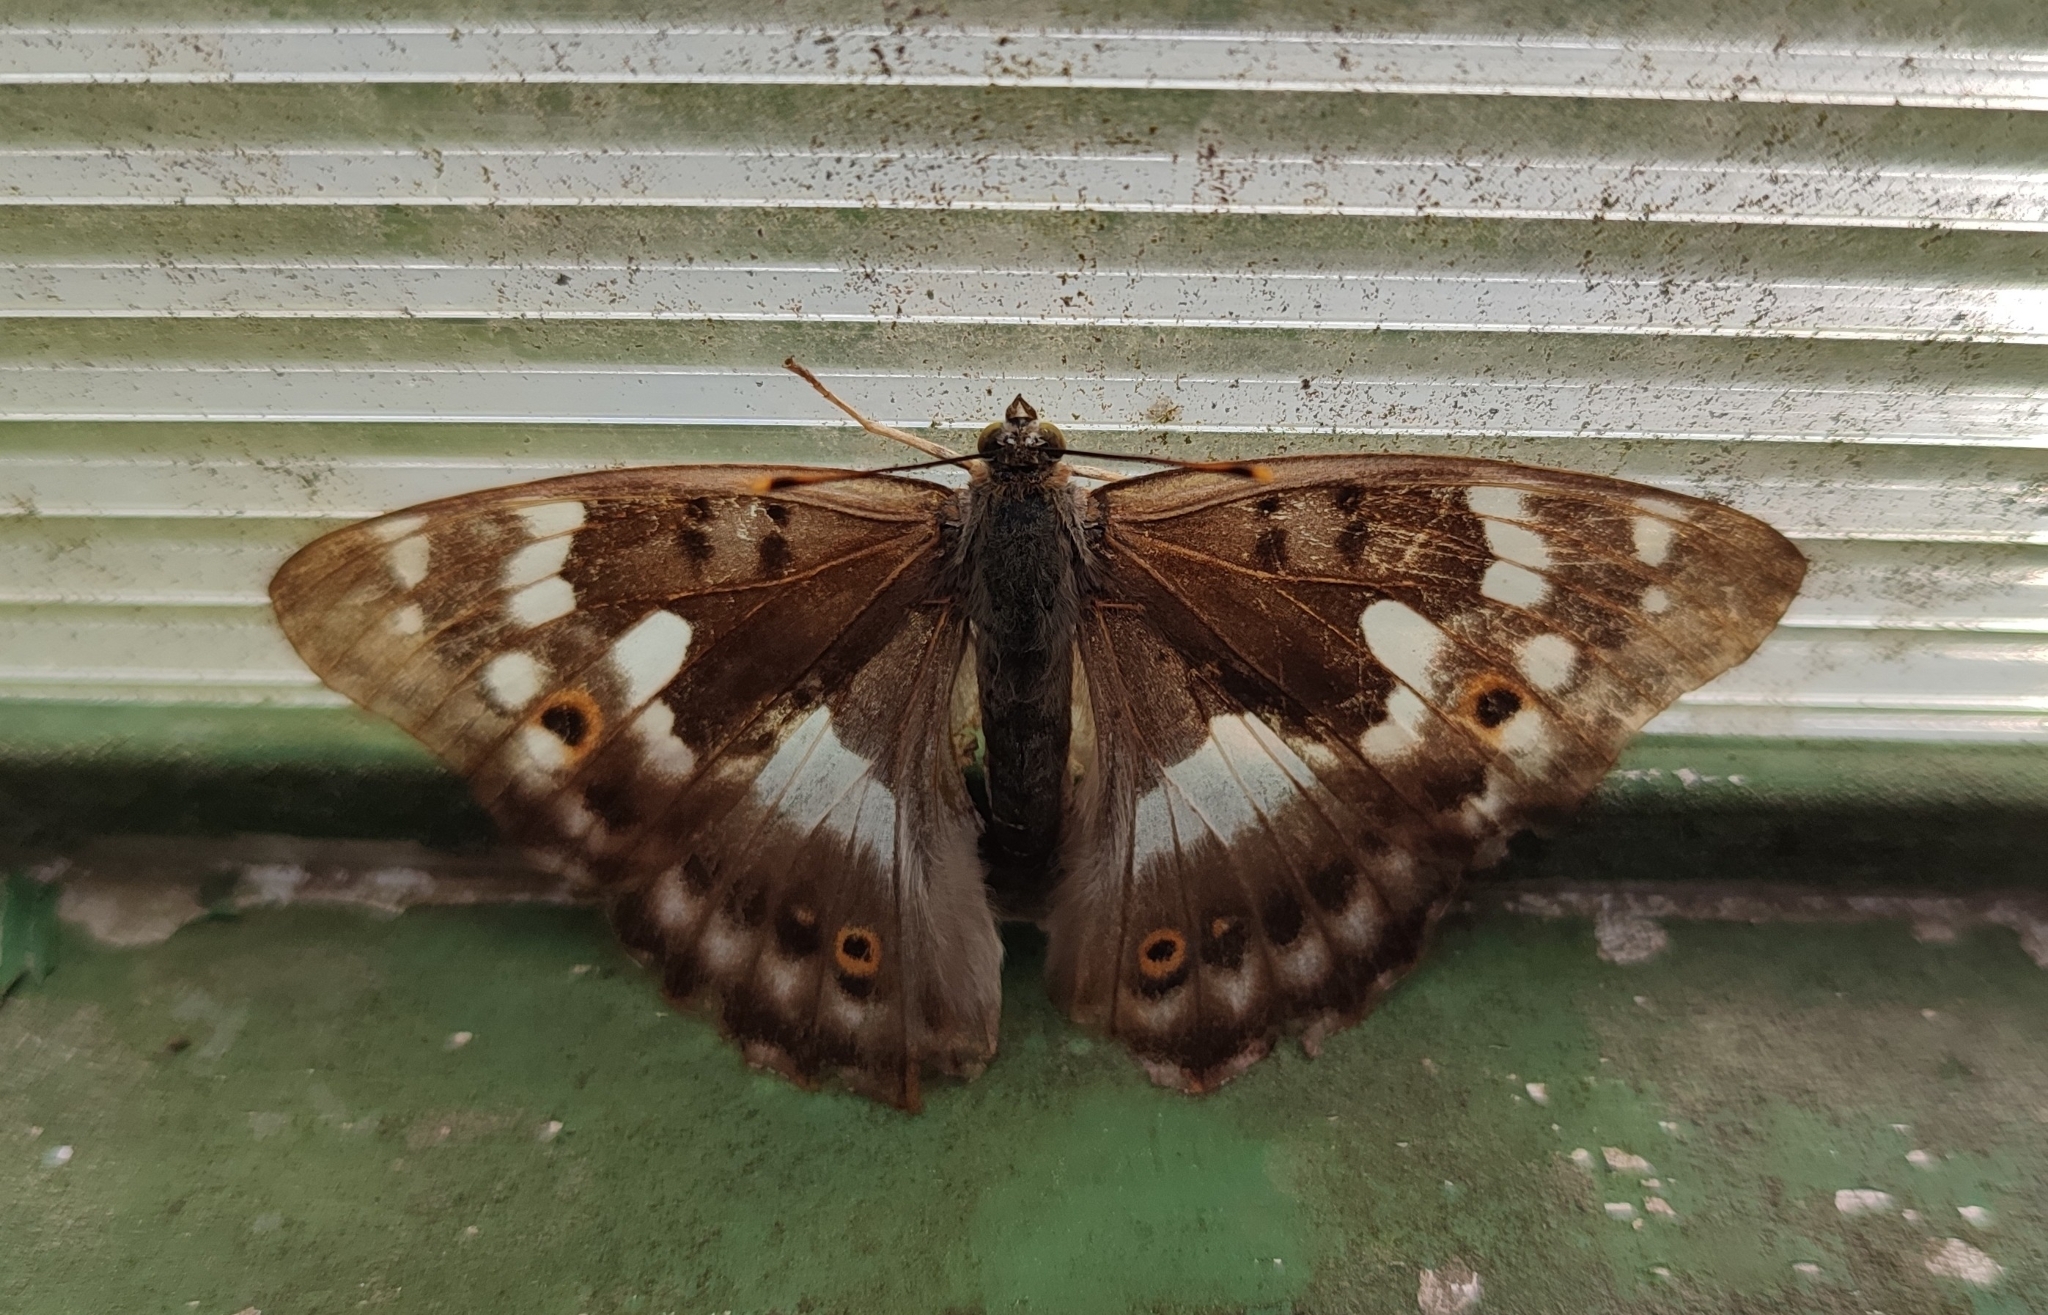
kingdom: Animalia
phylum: Arthropoda
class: Insecta
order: Lepidoptera
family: Nymphalidae
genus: Apatura
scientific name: Apatura ilia
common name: Lesser purple emperor
